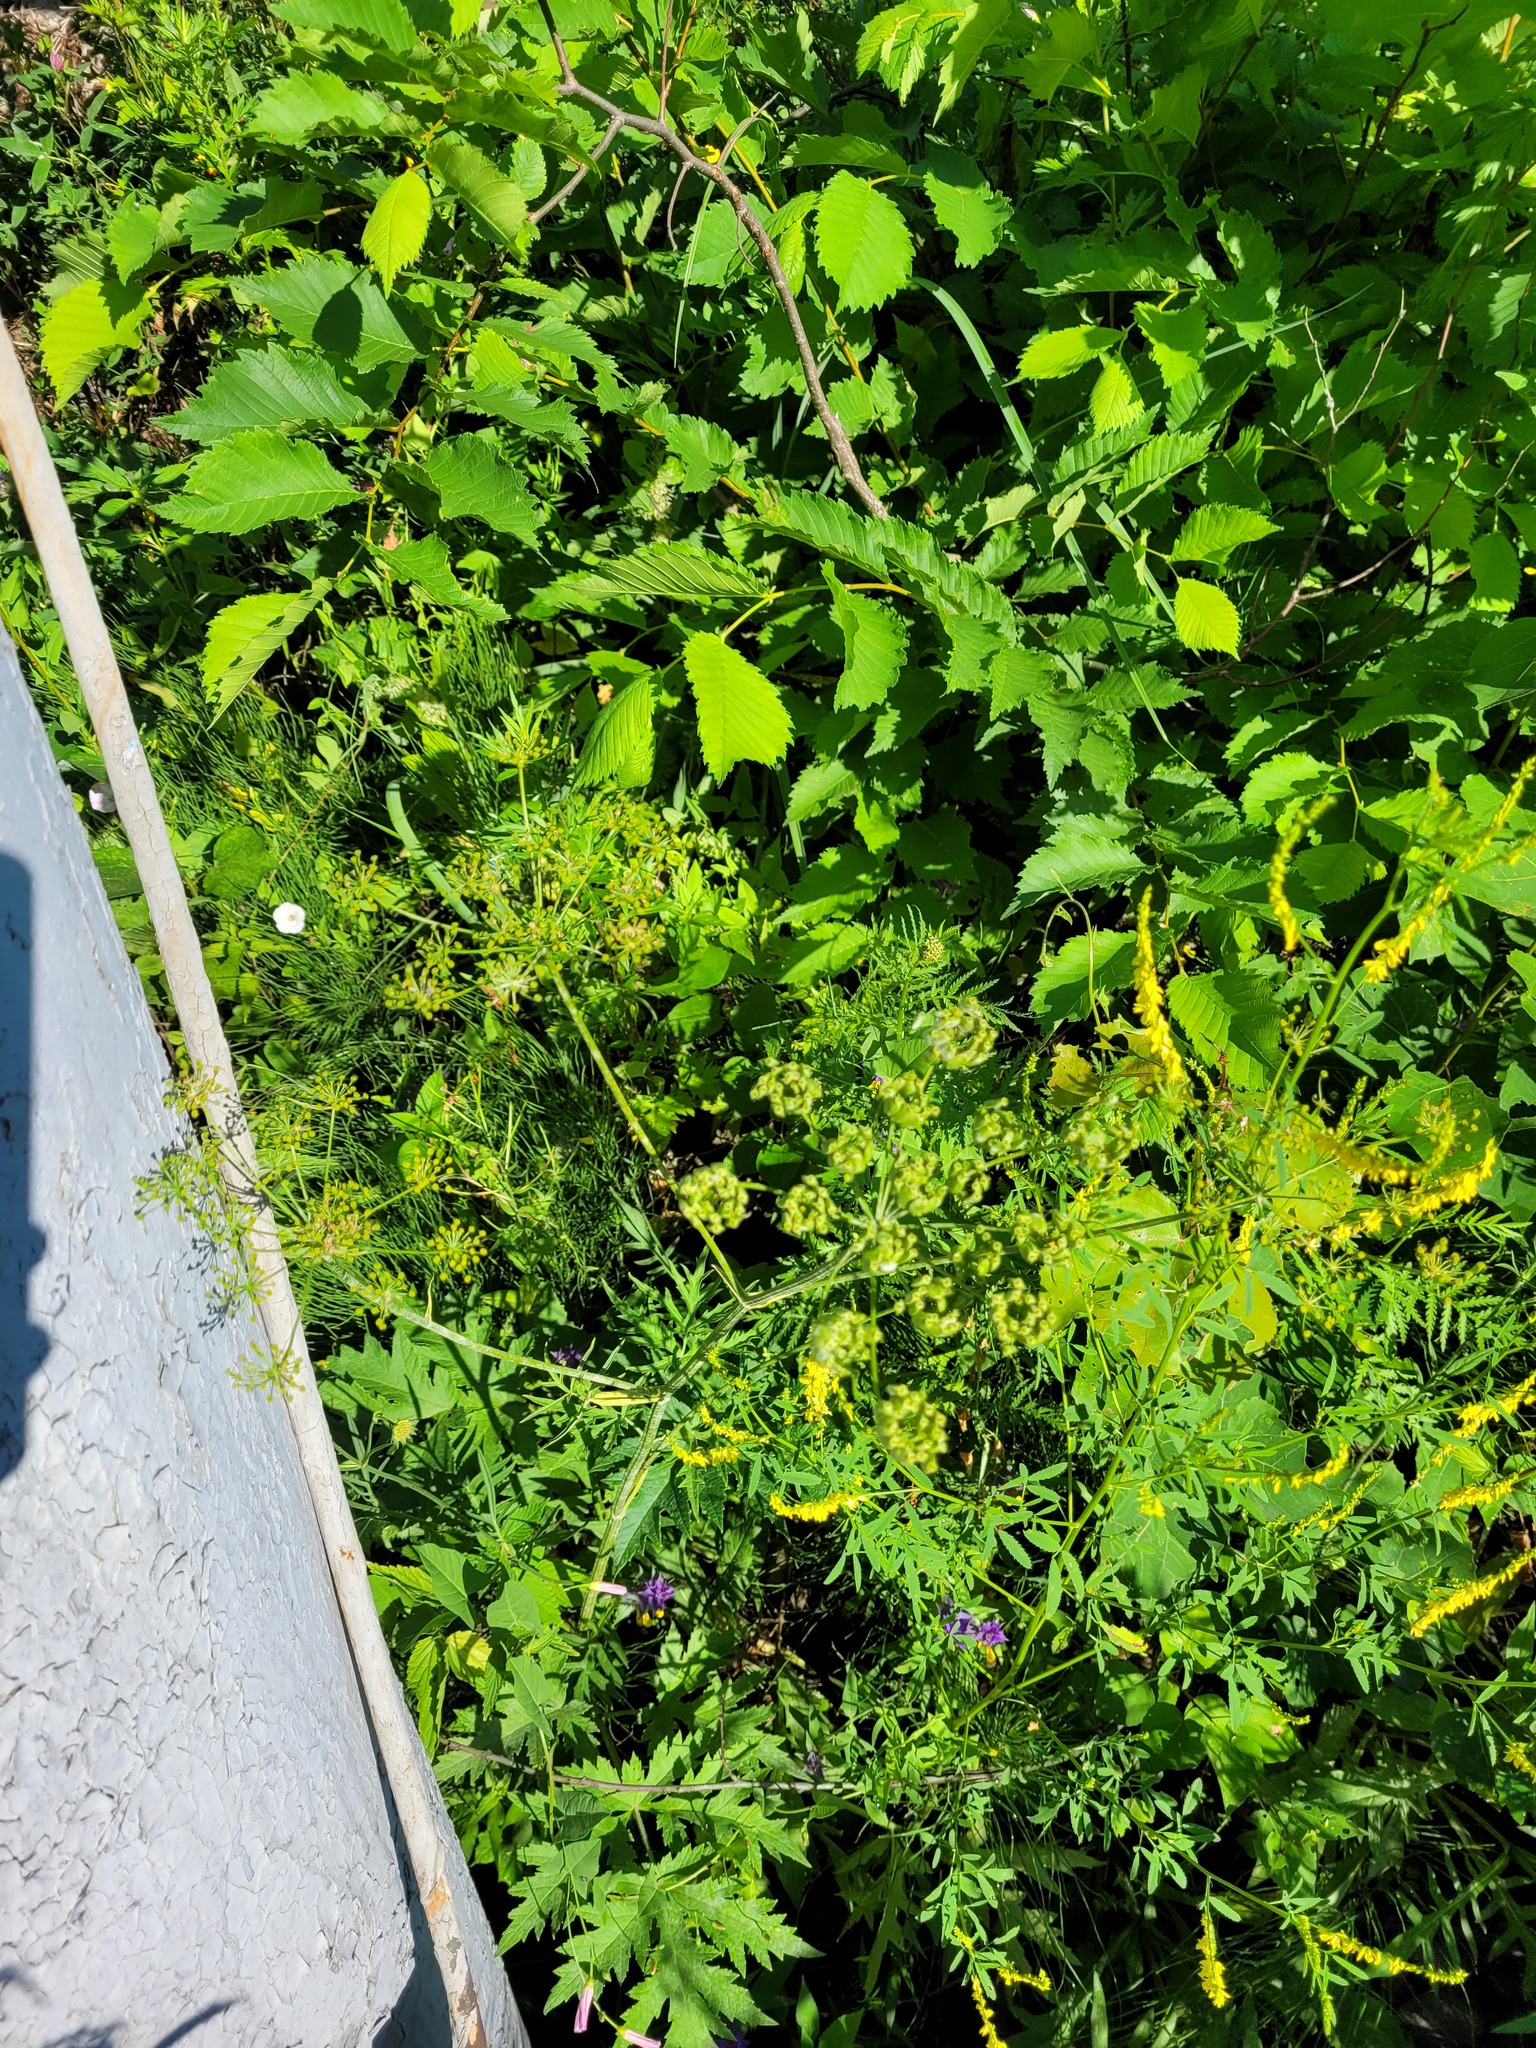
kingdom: Plantae
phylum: Tracheophyta
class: Magnoliopsida
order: Apiales
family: Apiaceae
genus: Heracleum
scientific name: Heracleum sphondylium
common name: Hogweed
